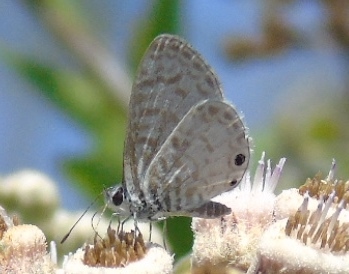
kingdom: Animalia
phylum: Arthropoda
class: Insecta
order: Lepidoptera
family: Lycaenidae
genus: Leptotes
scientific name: Leptotes cassius
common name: Cassius blue
